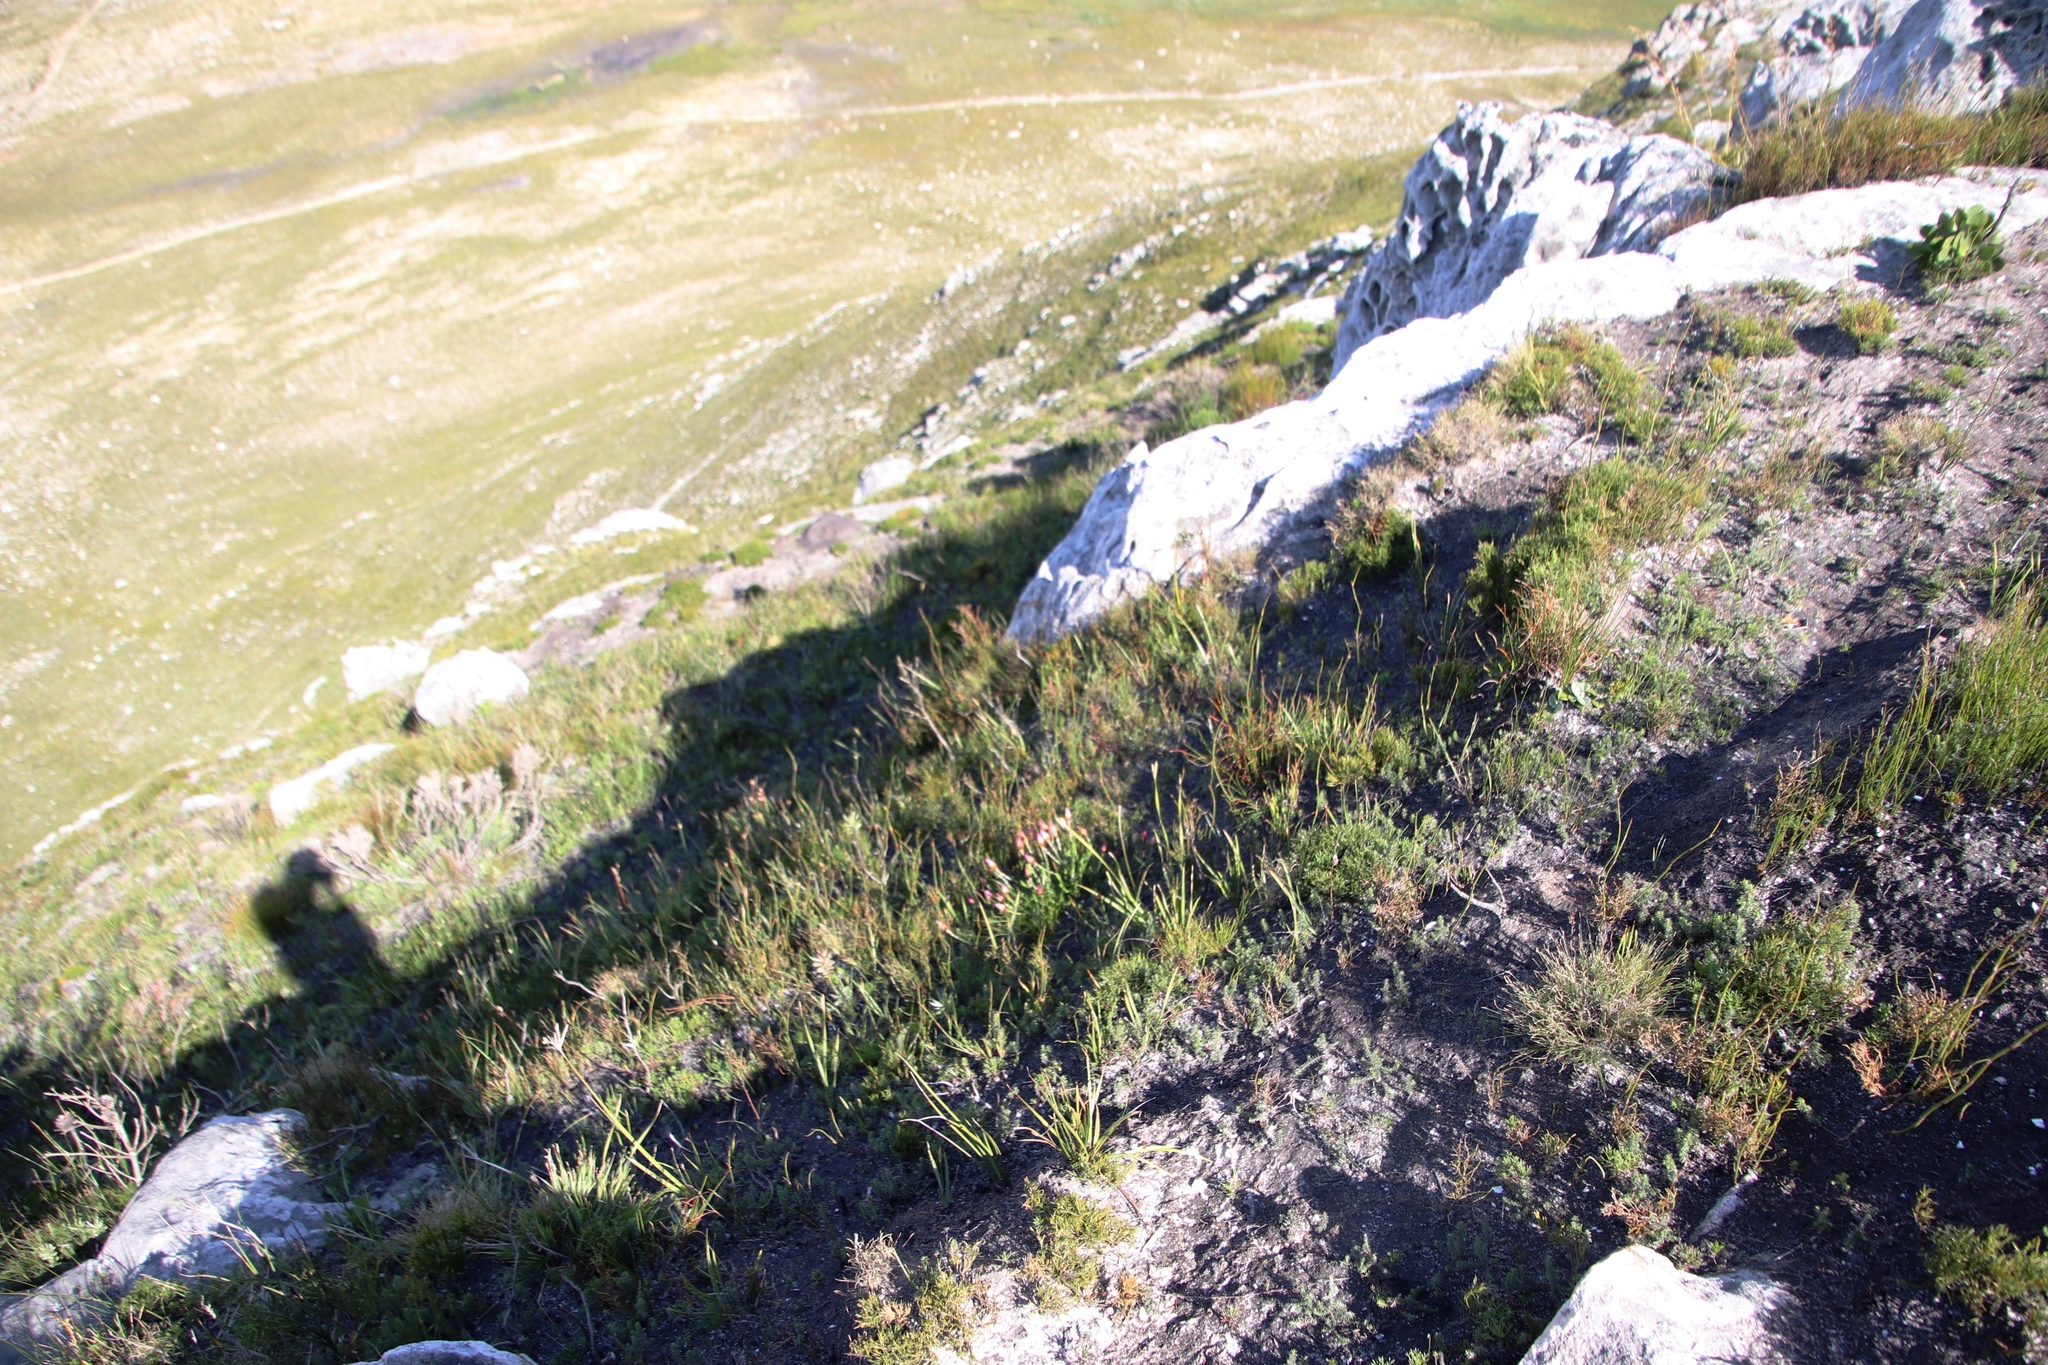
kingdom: Plantae
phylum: Tracheophyta
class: Magnoliopsida
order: Asterales
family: Asteraceae
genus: Syncarpha
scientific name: Syncarpha canescens
